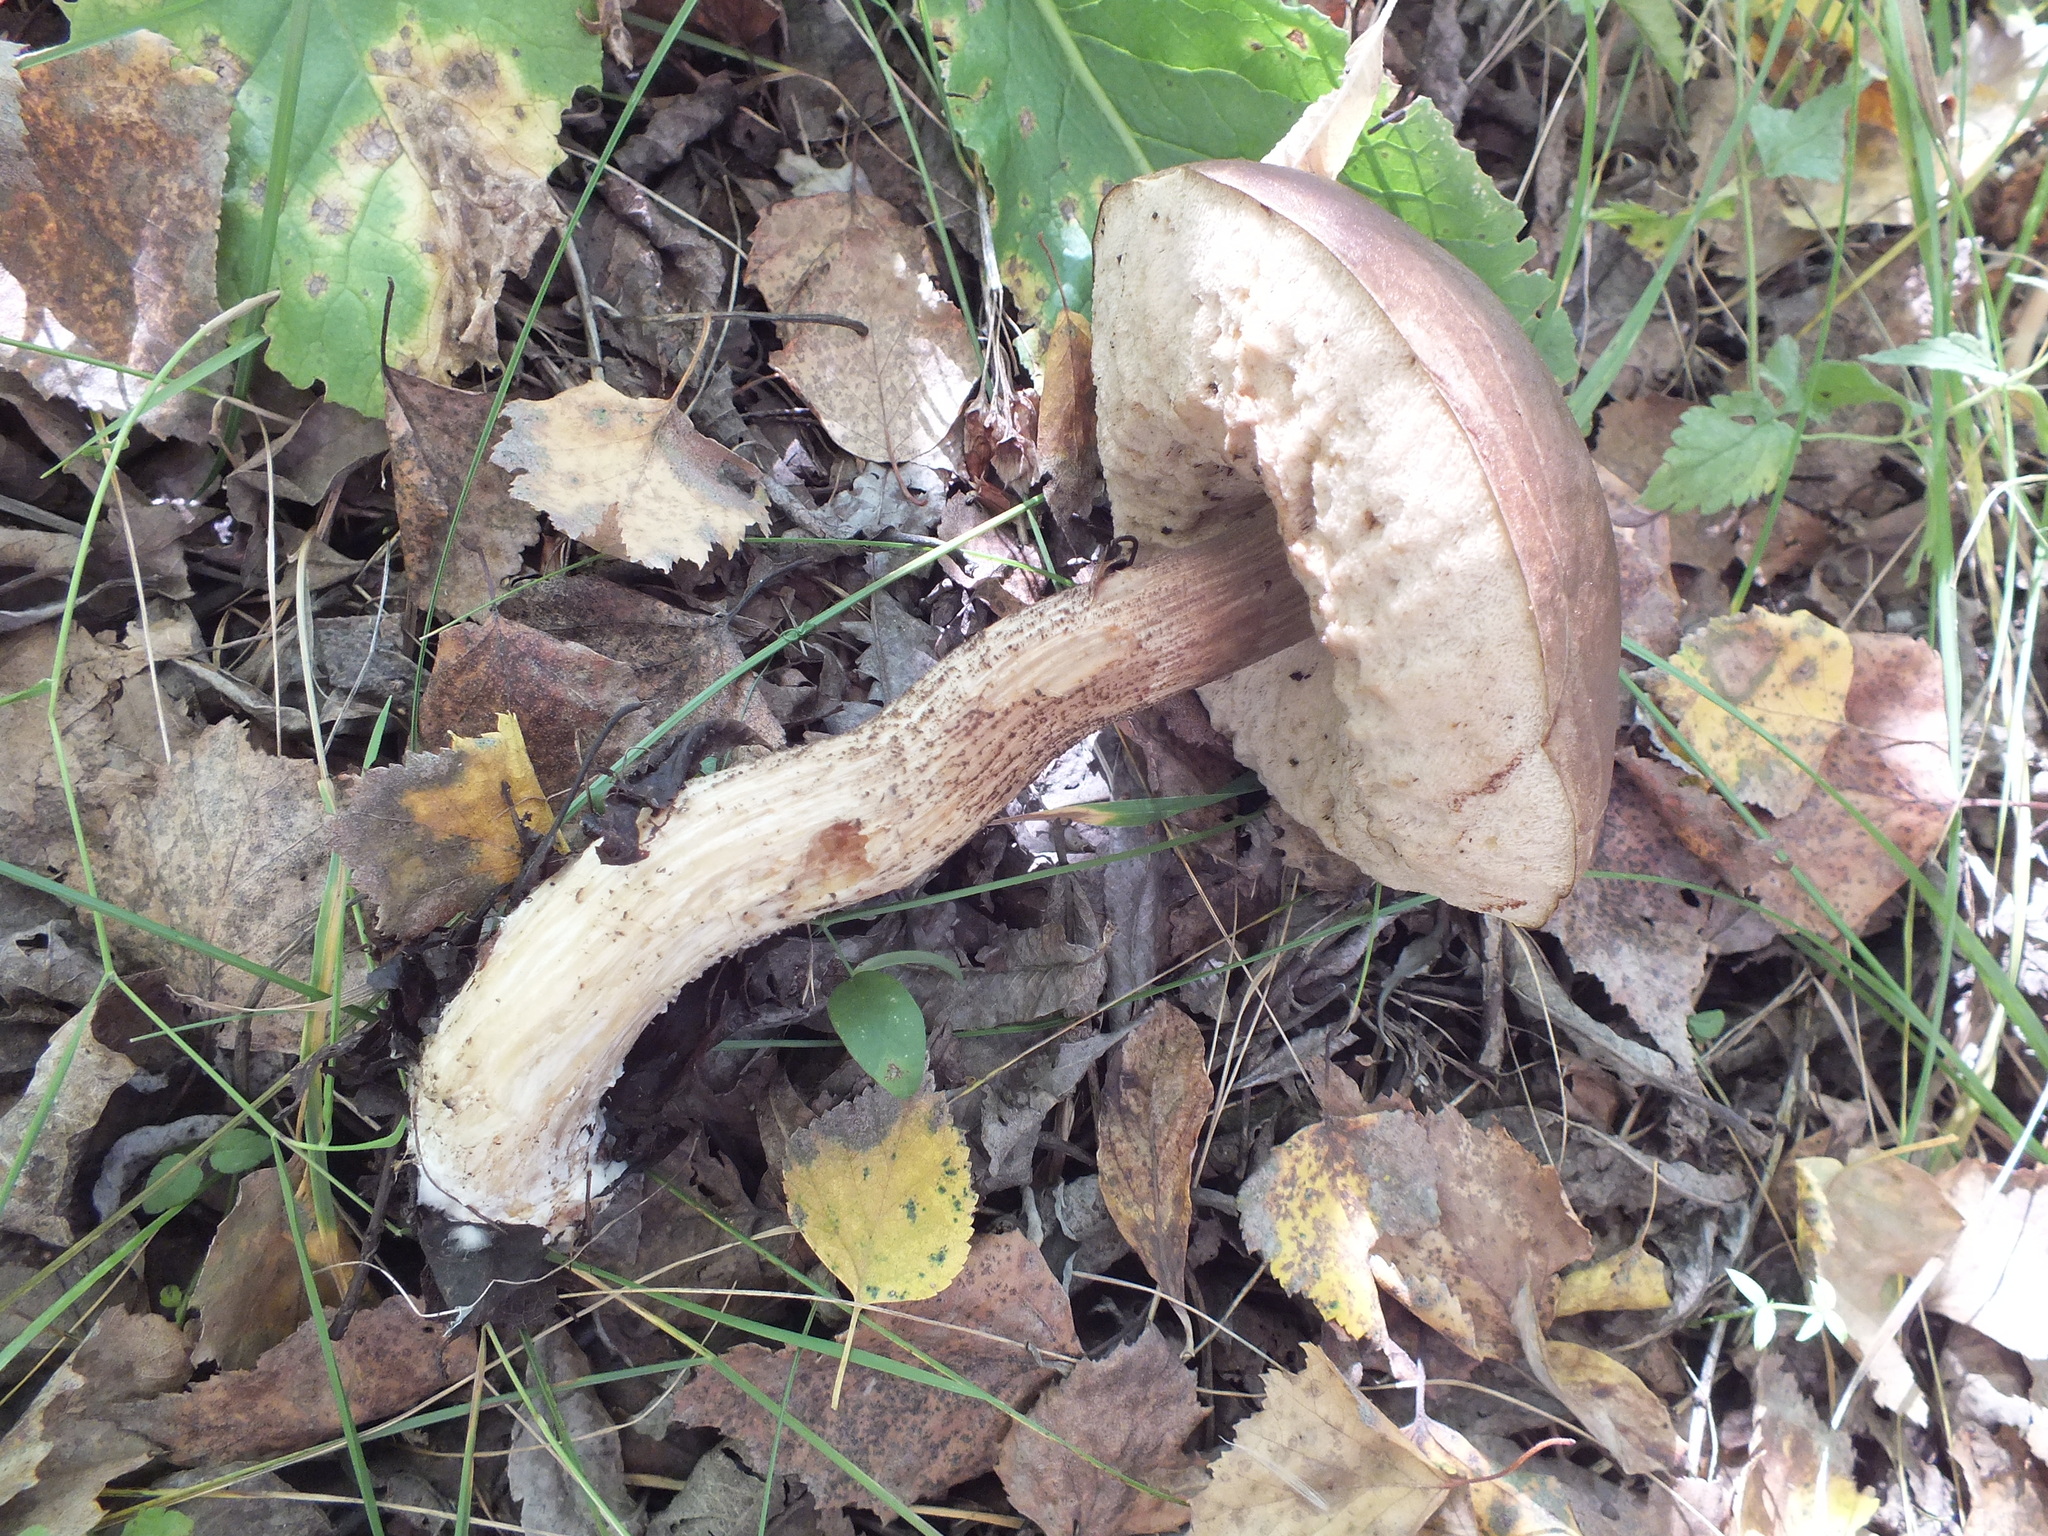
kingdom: Fungi
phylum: Basidiomycota
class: Agaricomycetes
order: Boletales
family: Boletaceae
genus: Leccinum
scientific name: Leccinum scabrum
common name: Blushing bolete
